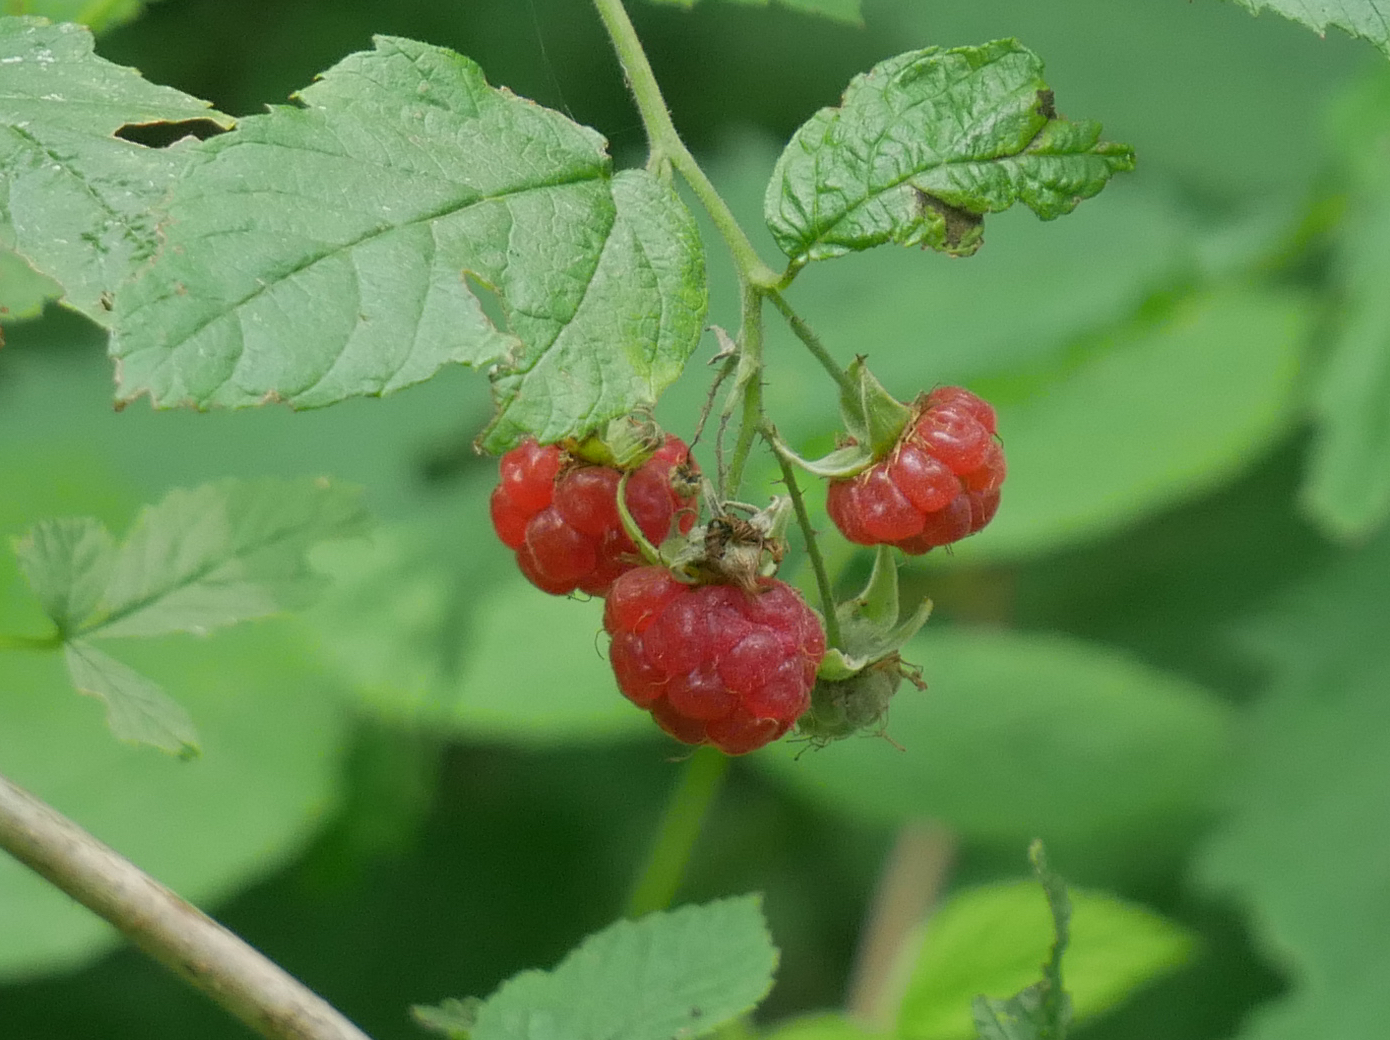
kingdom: Plantae
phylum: Tracheophyta
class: Magnoliopsida
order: Rosales
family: Rosaceae
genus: Rubus
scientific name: Rubus idaeus
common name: Raspberry
